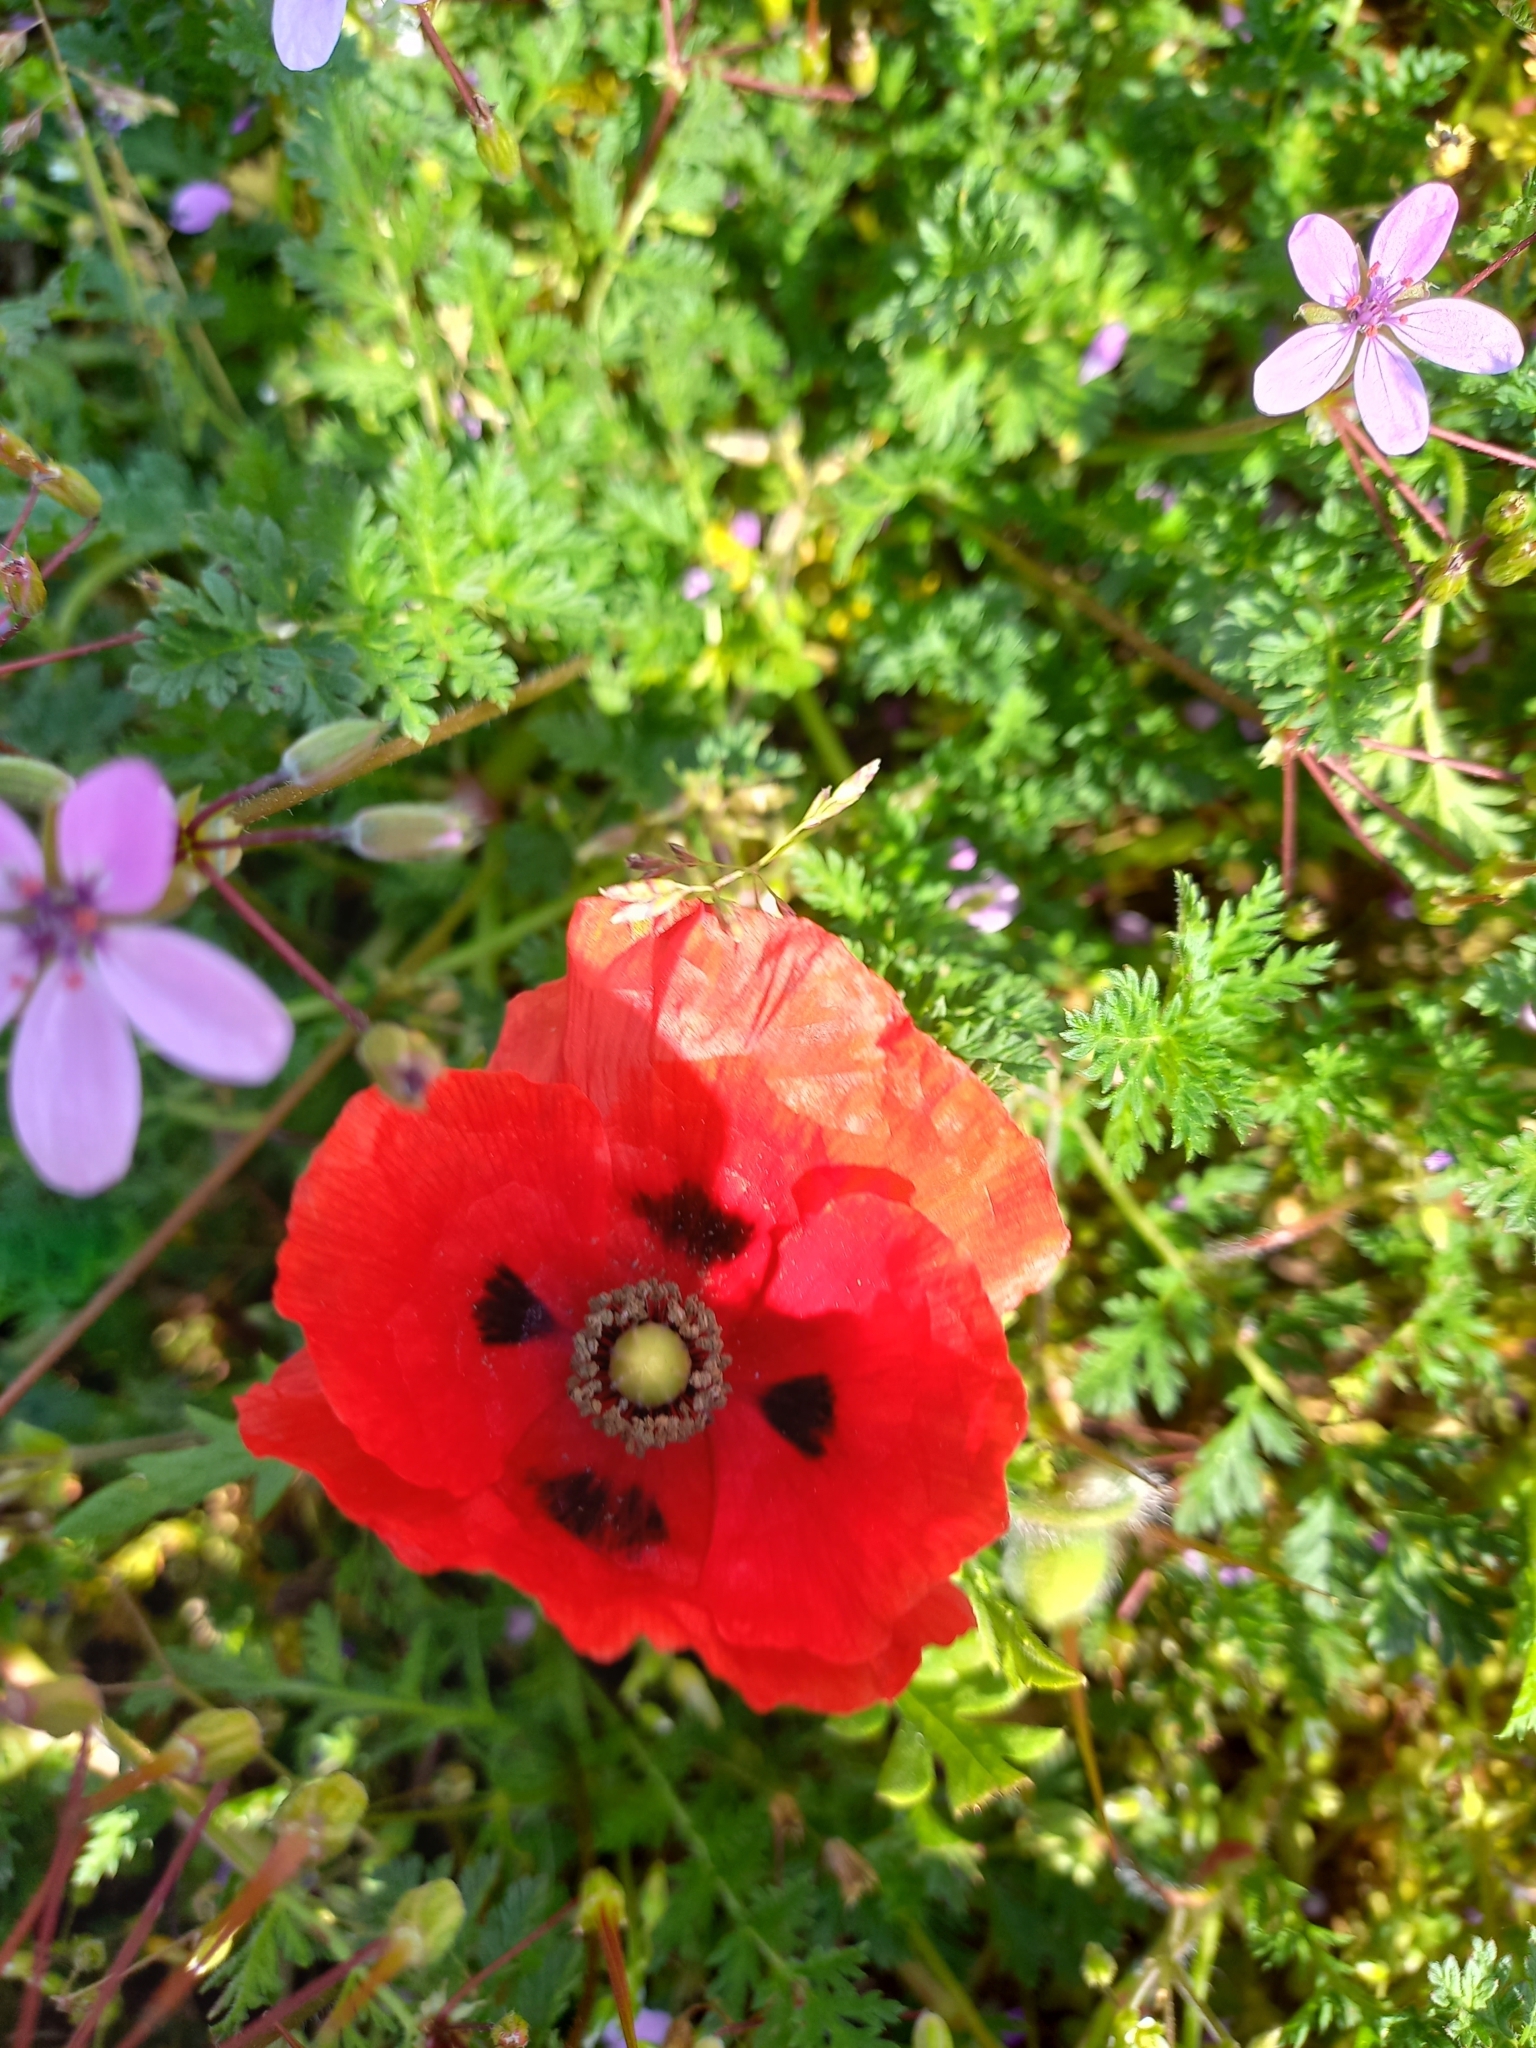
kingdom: Plantae
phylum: Tracheophyta
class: Magnoliopsida
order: Ranunculales
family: Papaveraceae
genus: Papaver
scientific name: Papaver rhoeas
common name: Corn poppy
